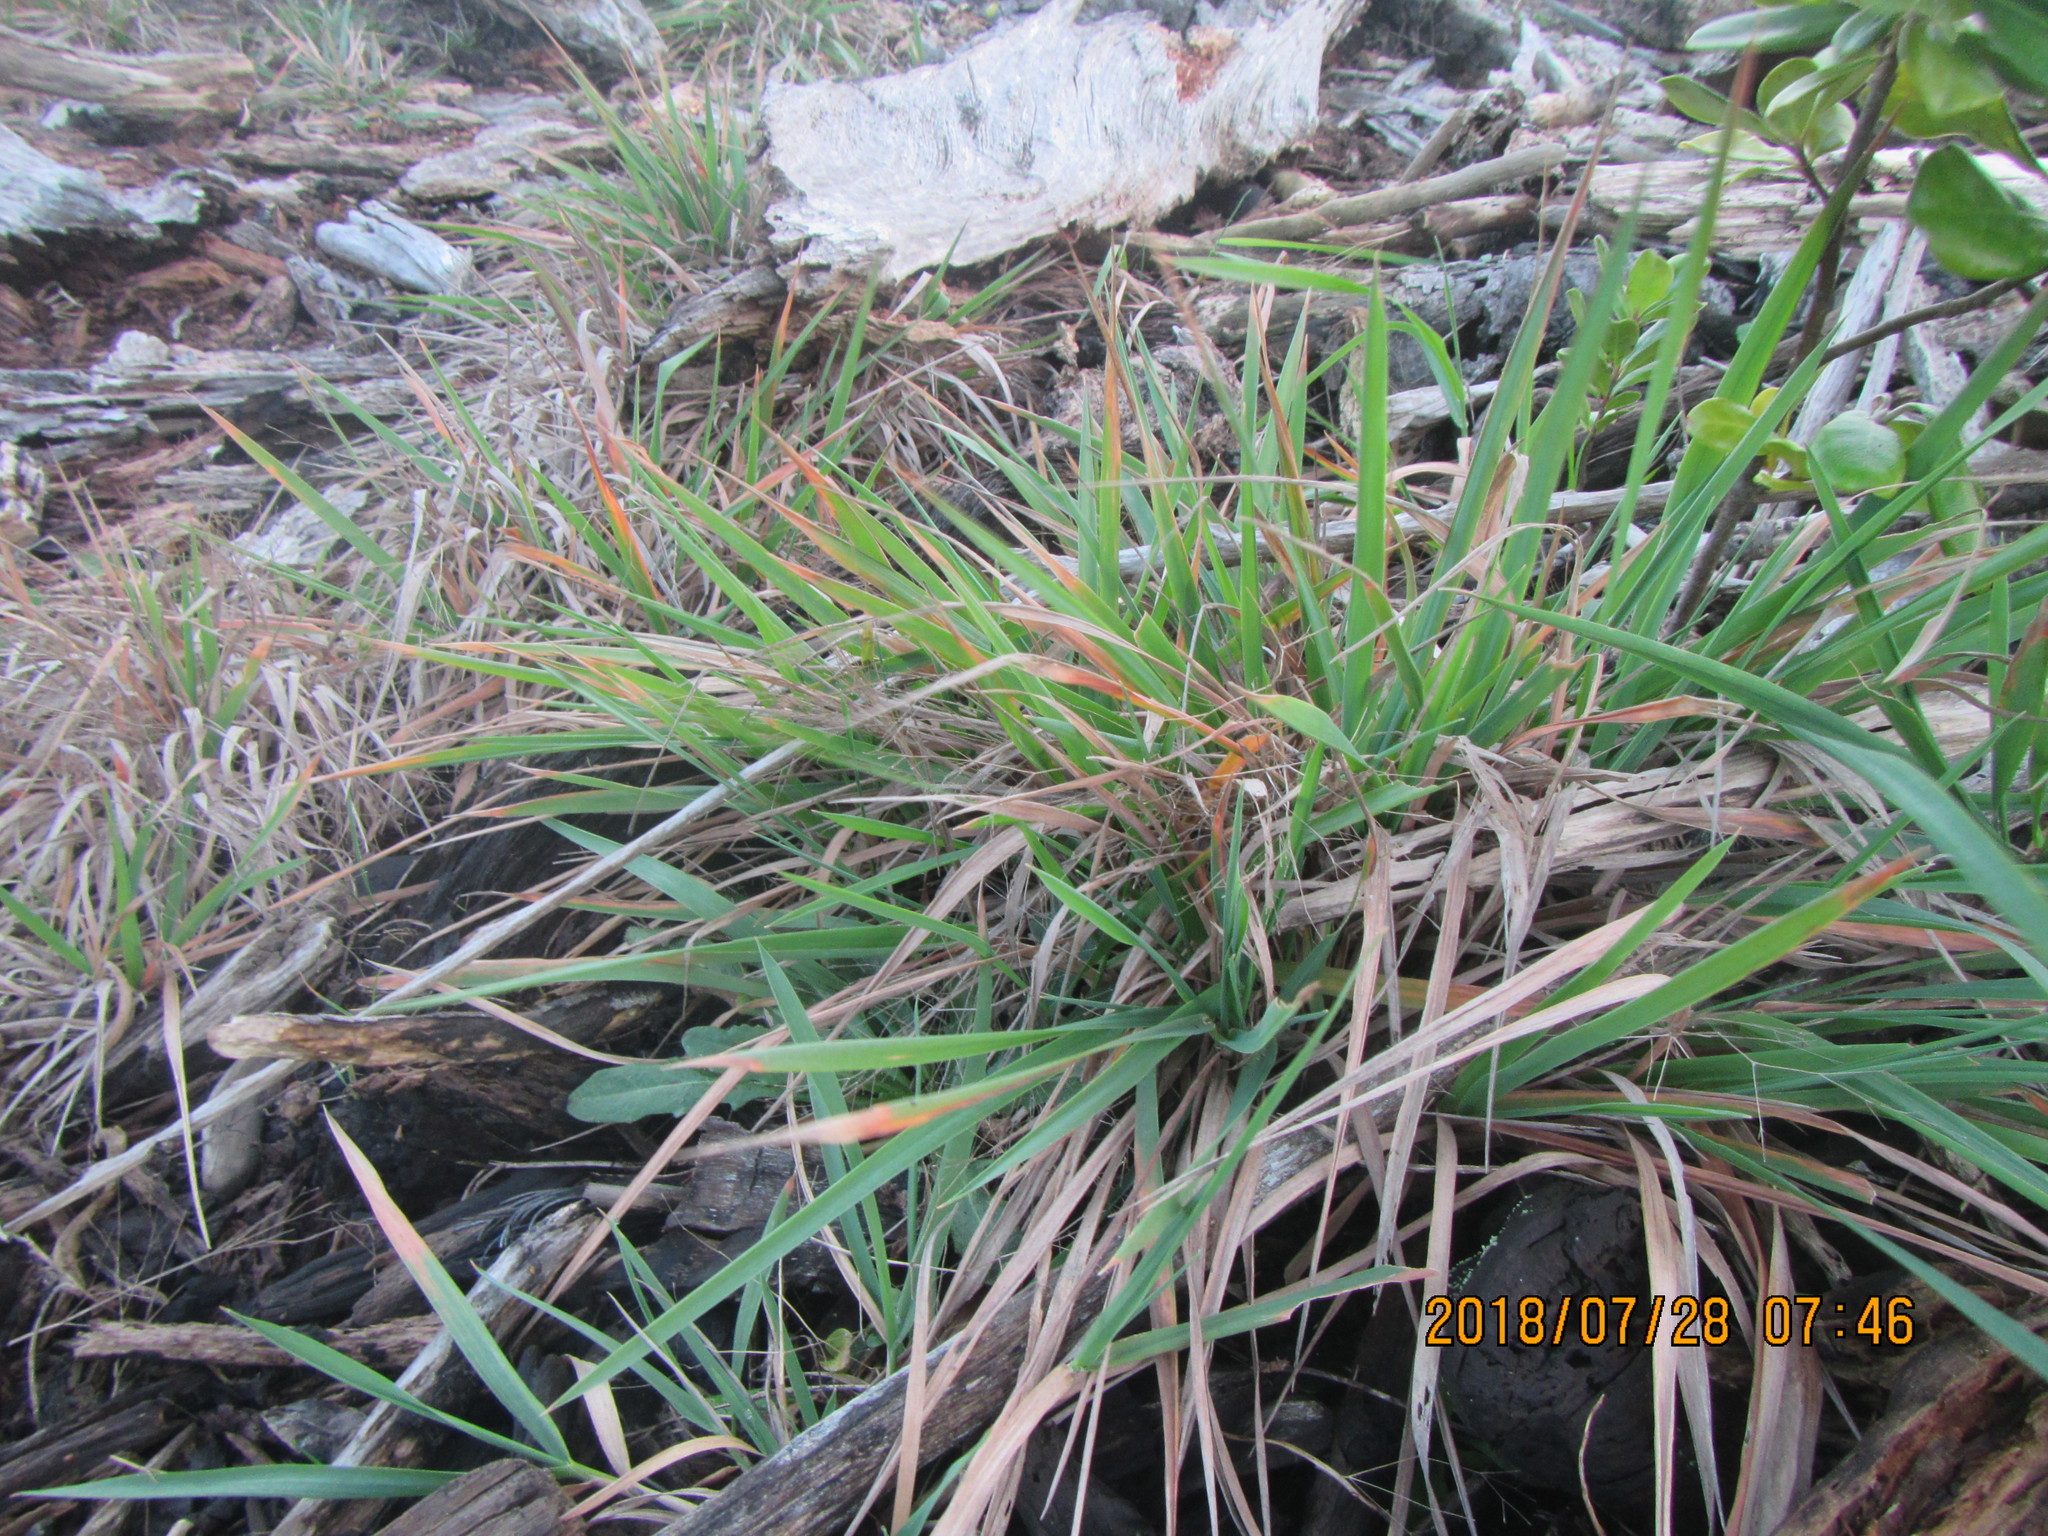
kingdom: Plantae
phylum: Tracheophyta
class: Liliopsida
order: Poales
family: Poaceae
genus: Lachnagrostis
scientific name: Lachnagrostis billardierei
